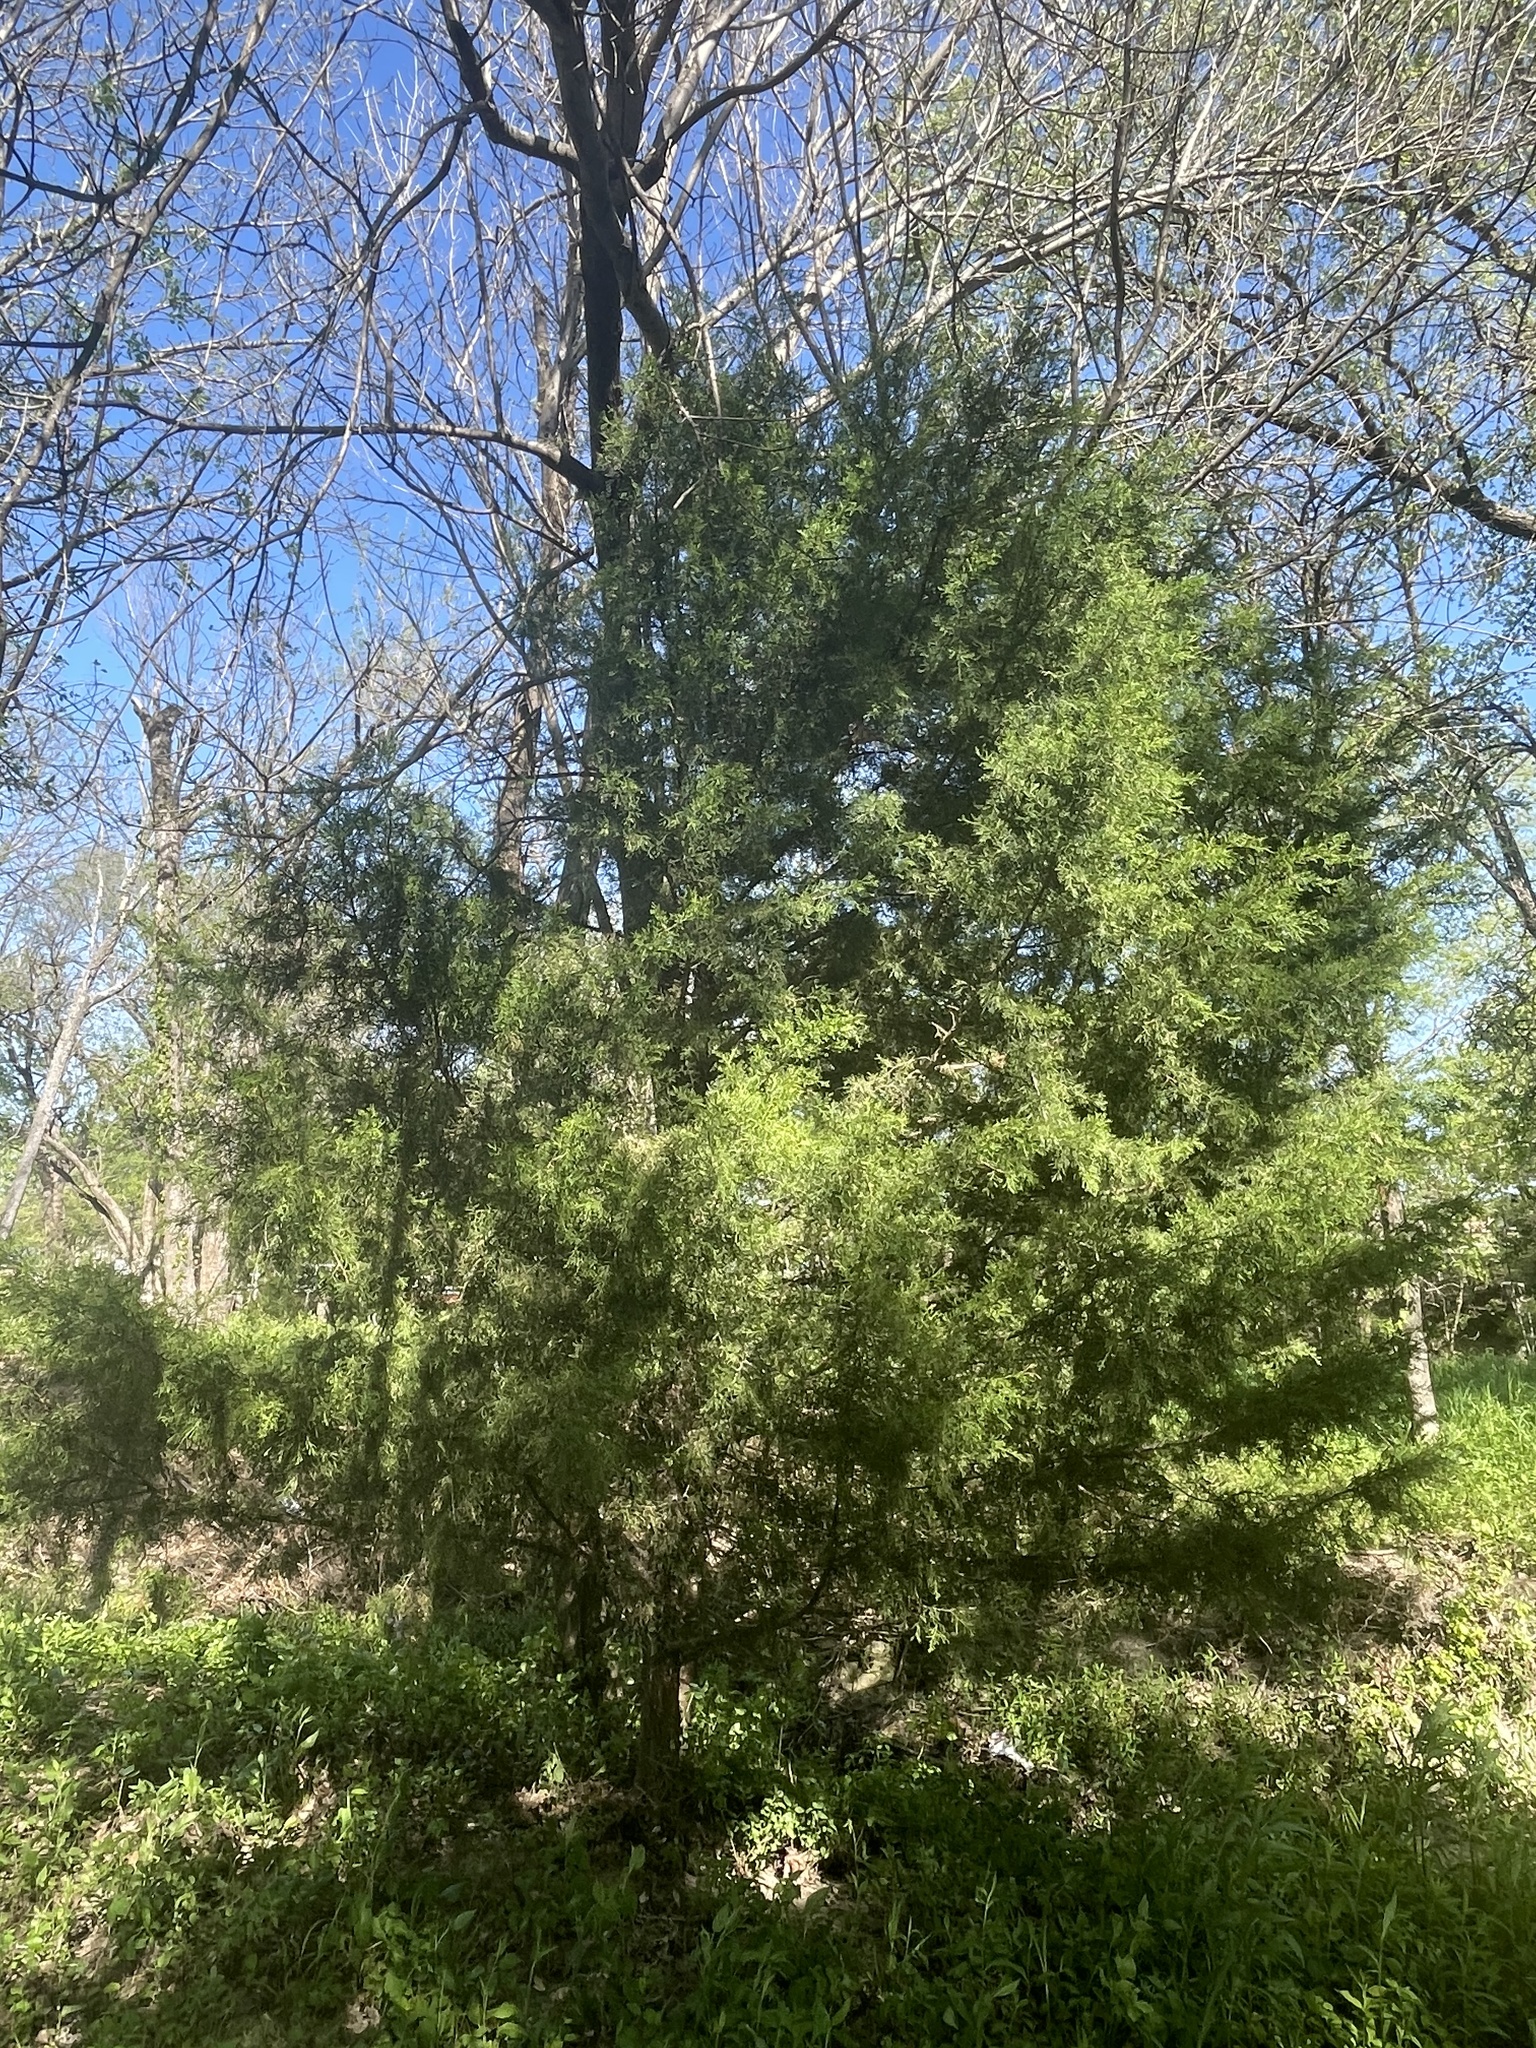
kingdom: Plantae
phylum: Tracheophyta
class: Pinopsida
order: Pinales
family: Cupressaceae
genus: Juniperus
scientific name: Juniperus virginiana
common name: Red juniper
